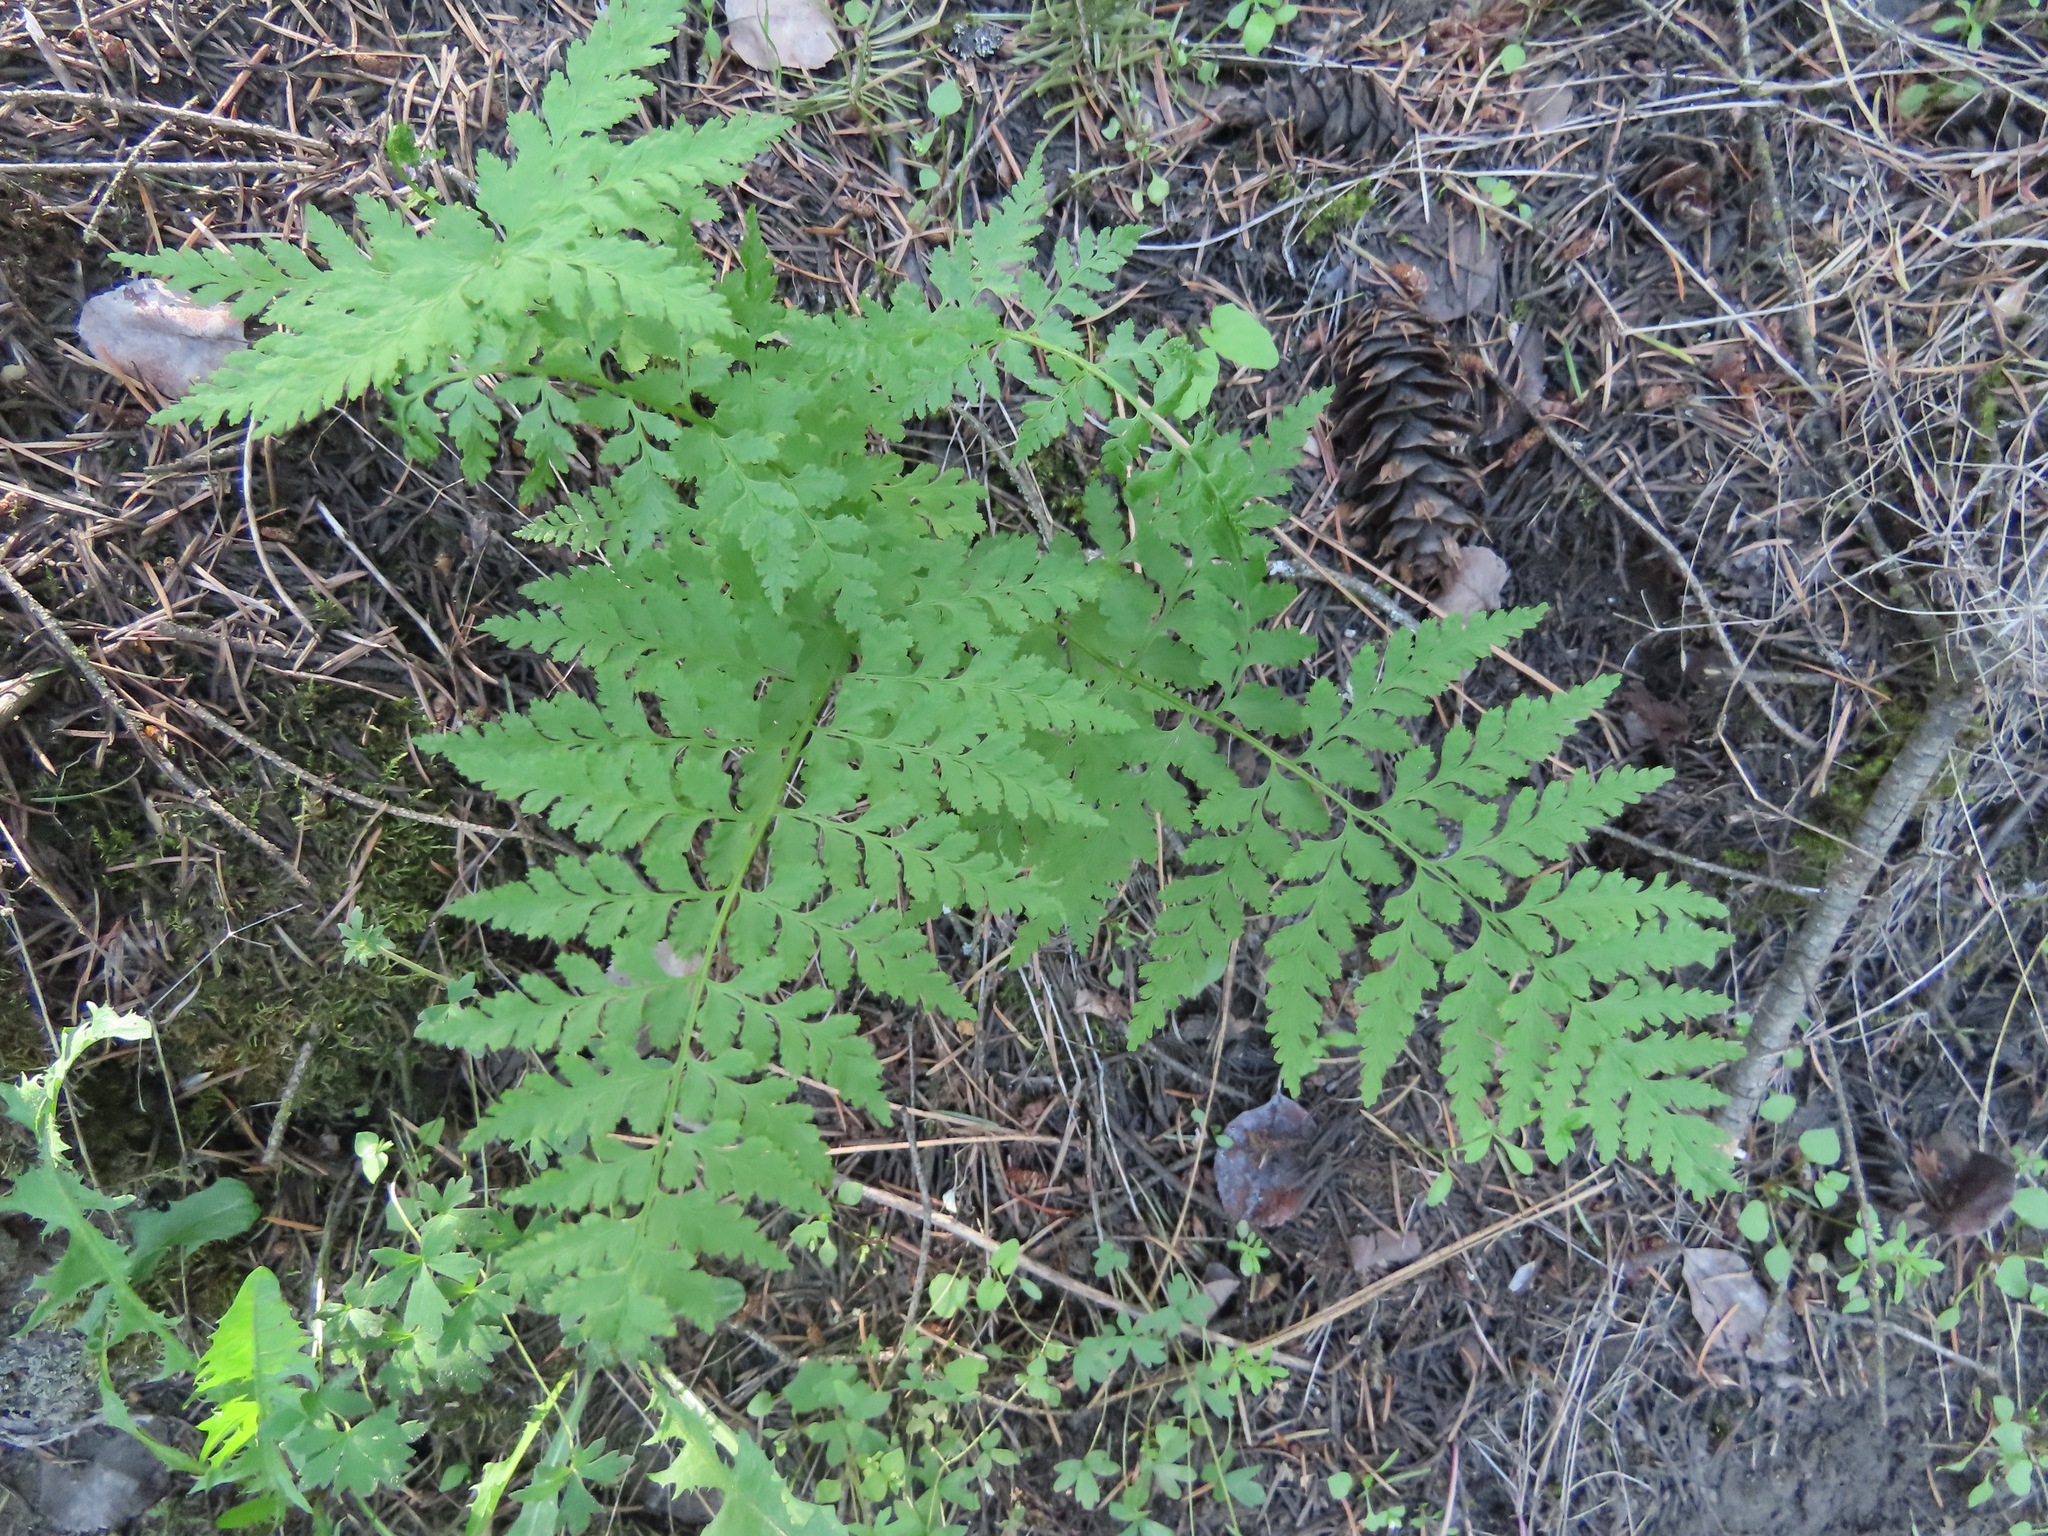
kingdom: Plantae
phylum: Tracheophyta
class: Polypodiopsida
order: Polypodiales
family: Cystopteridaceae
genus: Cystopteris
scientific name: Cystopteris fragilis
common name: Brittle bladder fern
